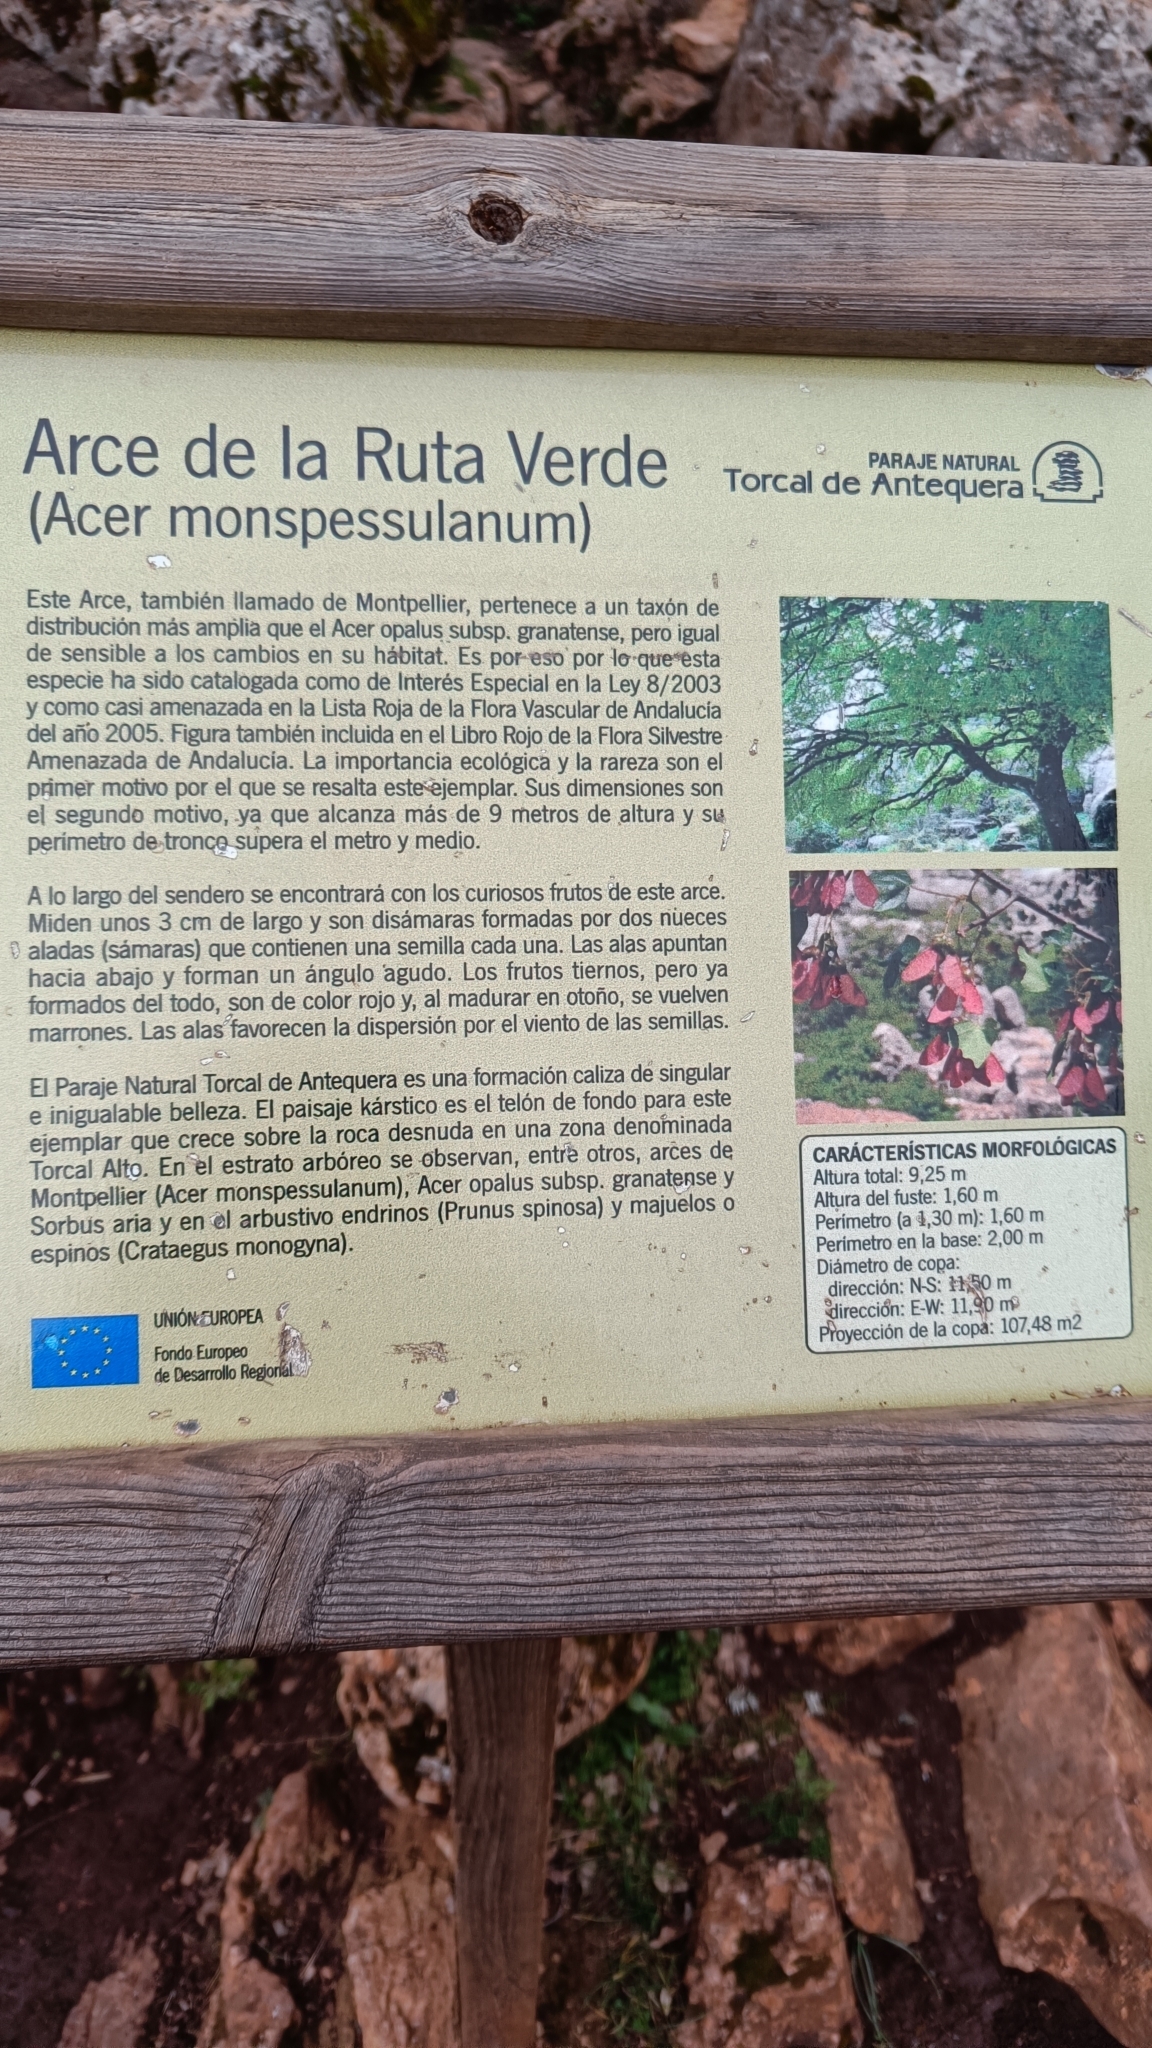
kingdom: Plantae
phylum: Tracheophyta
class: Magnoliopsida
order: Sapindales
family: Sapindaceae
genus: Acer
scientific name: Acer monspessulanum
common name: Montpellier maple
